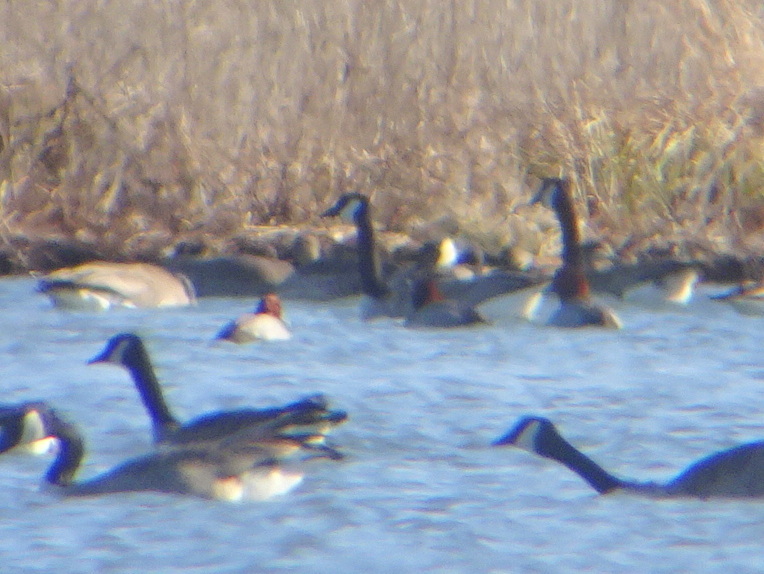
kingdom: Animalia
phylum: Chordata
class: Aves
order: Anseriformes
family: Anatidae
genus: Aythya
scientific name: Aythya americana
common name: Redhead
